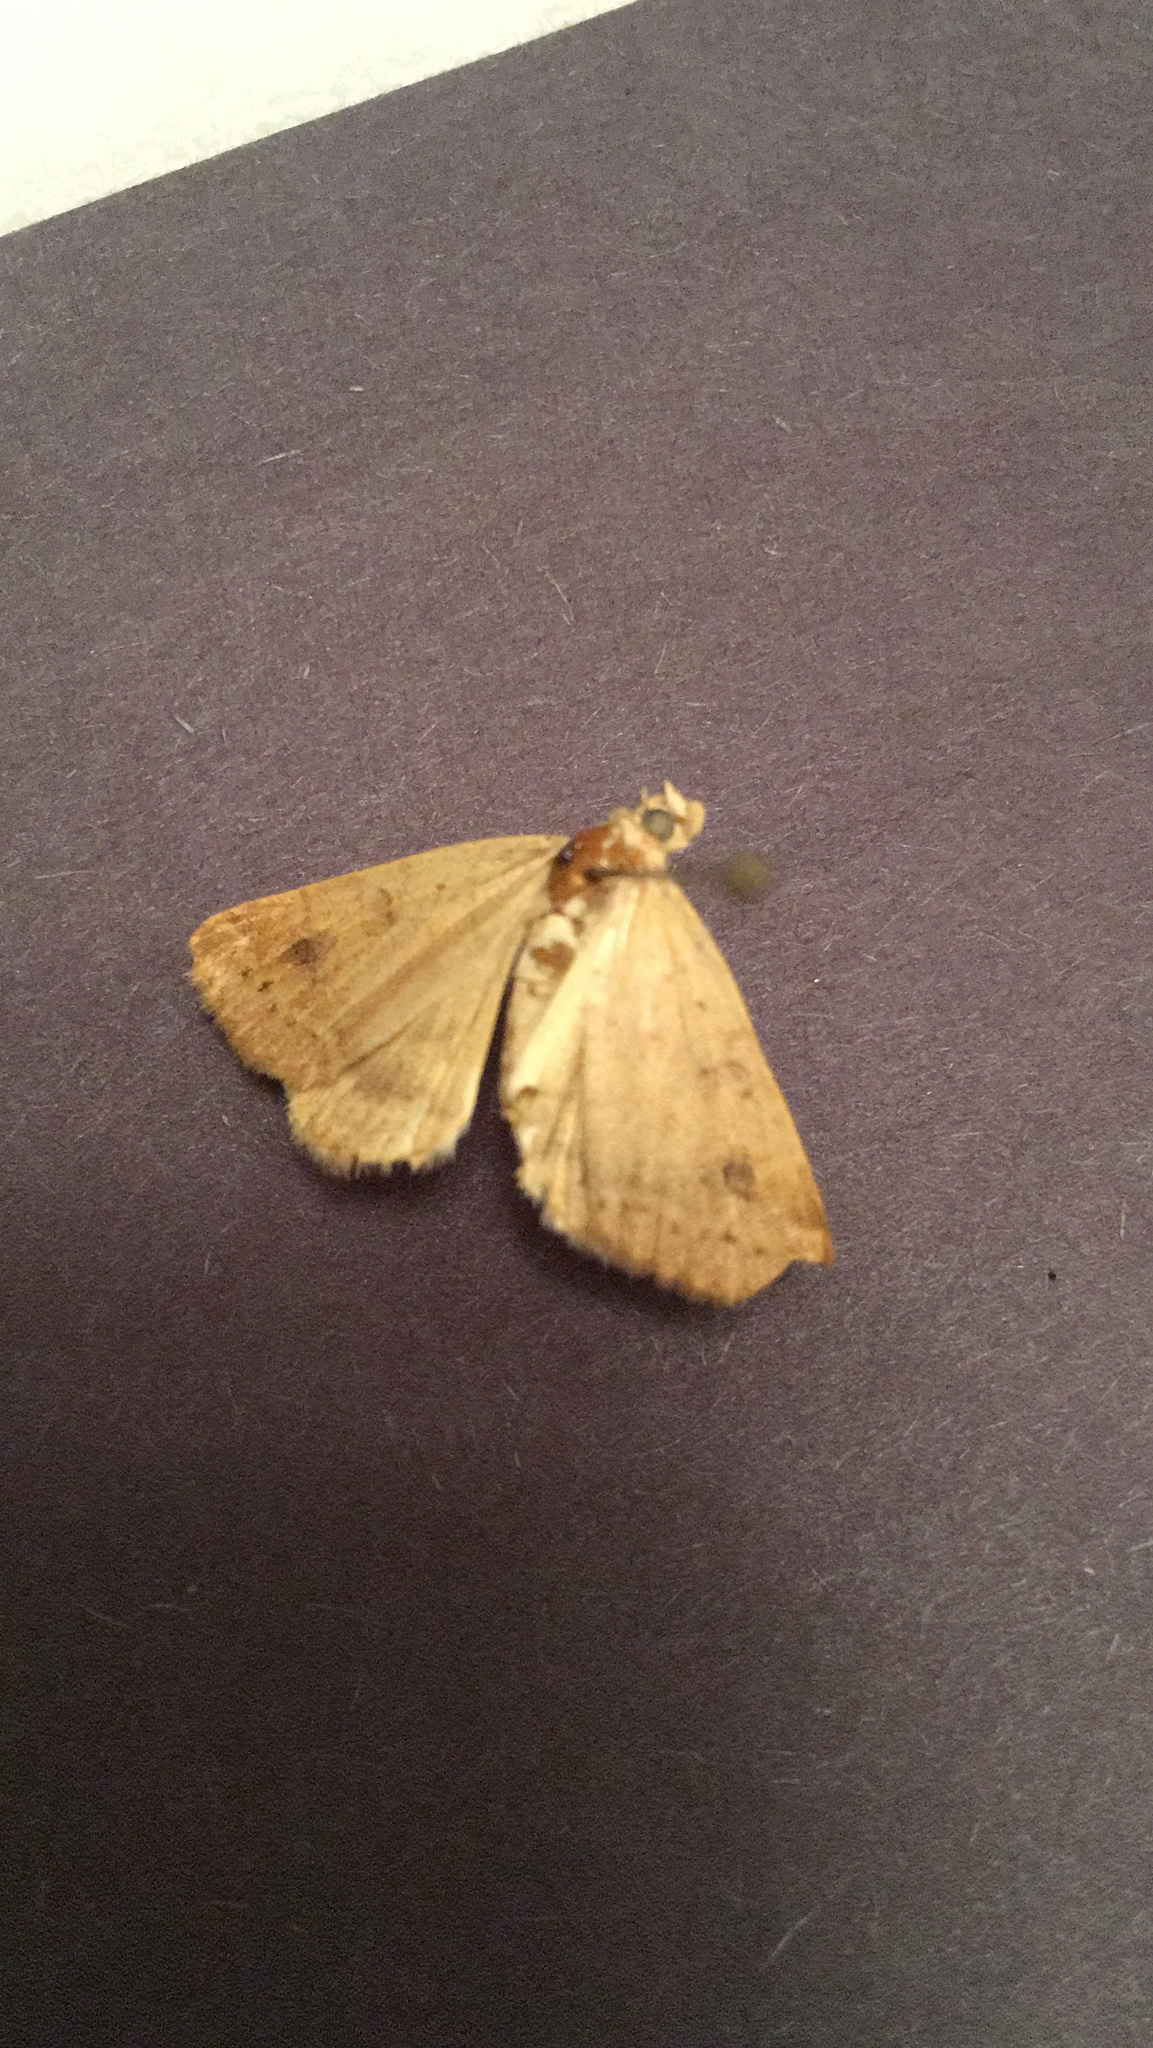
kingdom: Animalia
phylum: Arthropoda
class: Insecta
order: Lepidoptera
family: Erebidae
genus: Caenurgia
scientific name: Caenurgia chloropha
